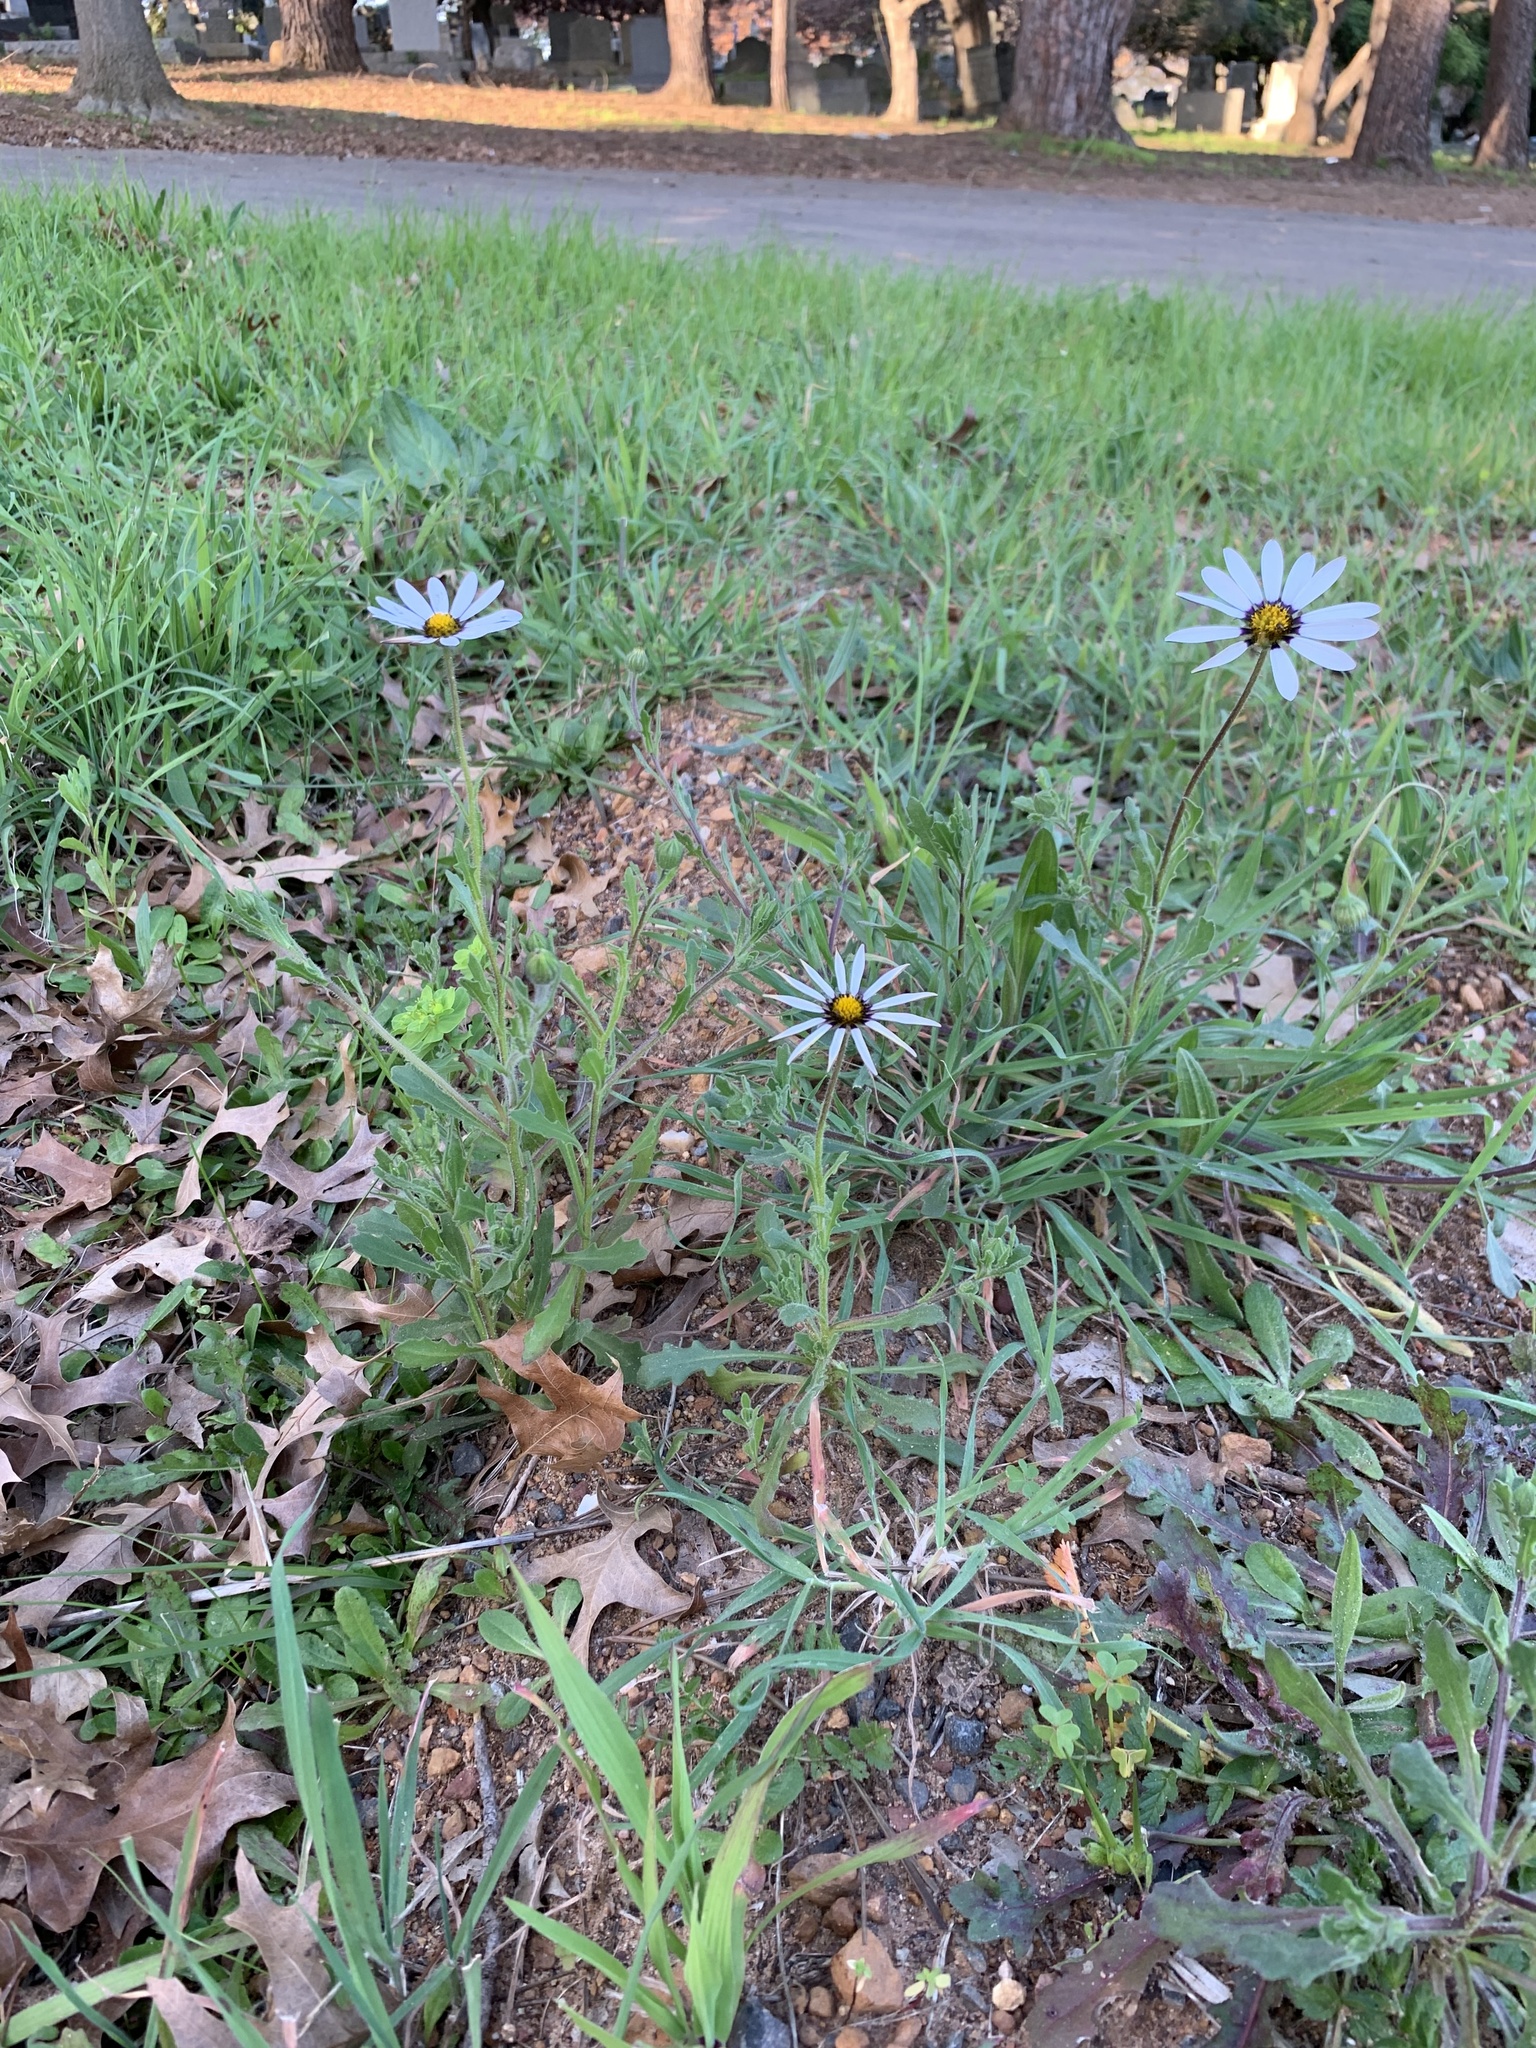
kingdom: Plantae
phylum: Tracheophyta
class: Magnoliopsida
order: Asterales
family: Asteraceae
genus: Dimorphotheca
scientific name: Dimorphotheca pluvialis
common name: Weather prophet
